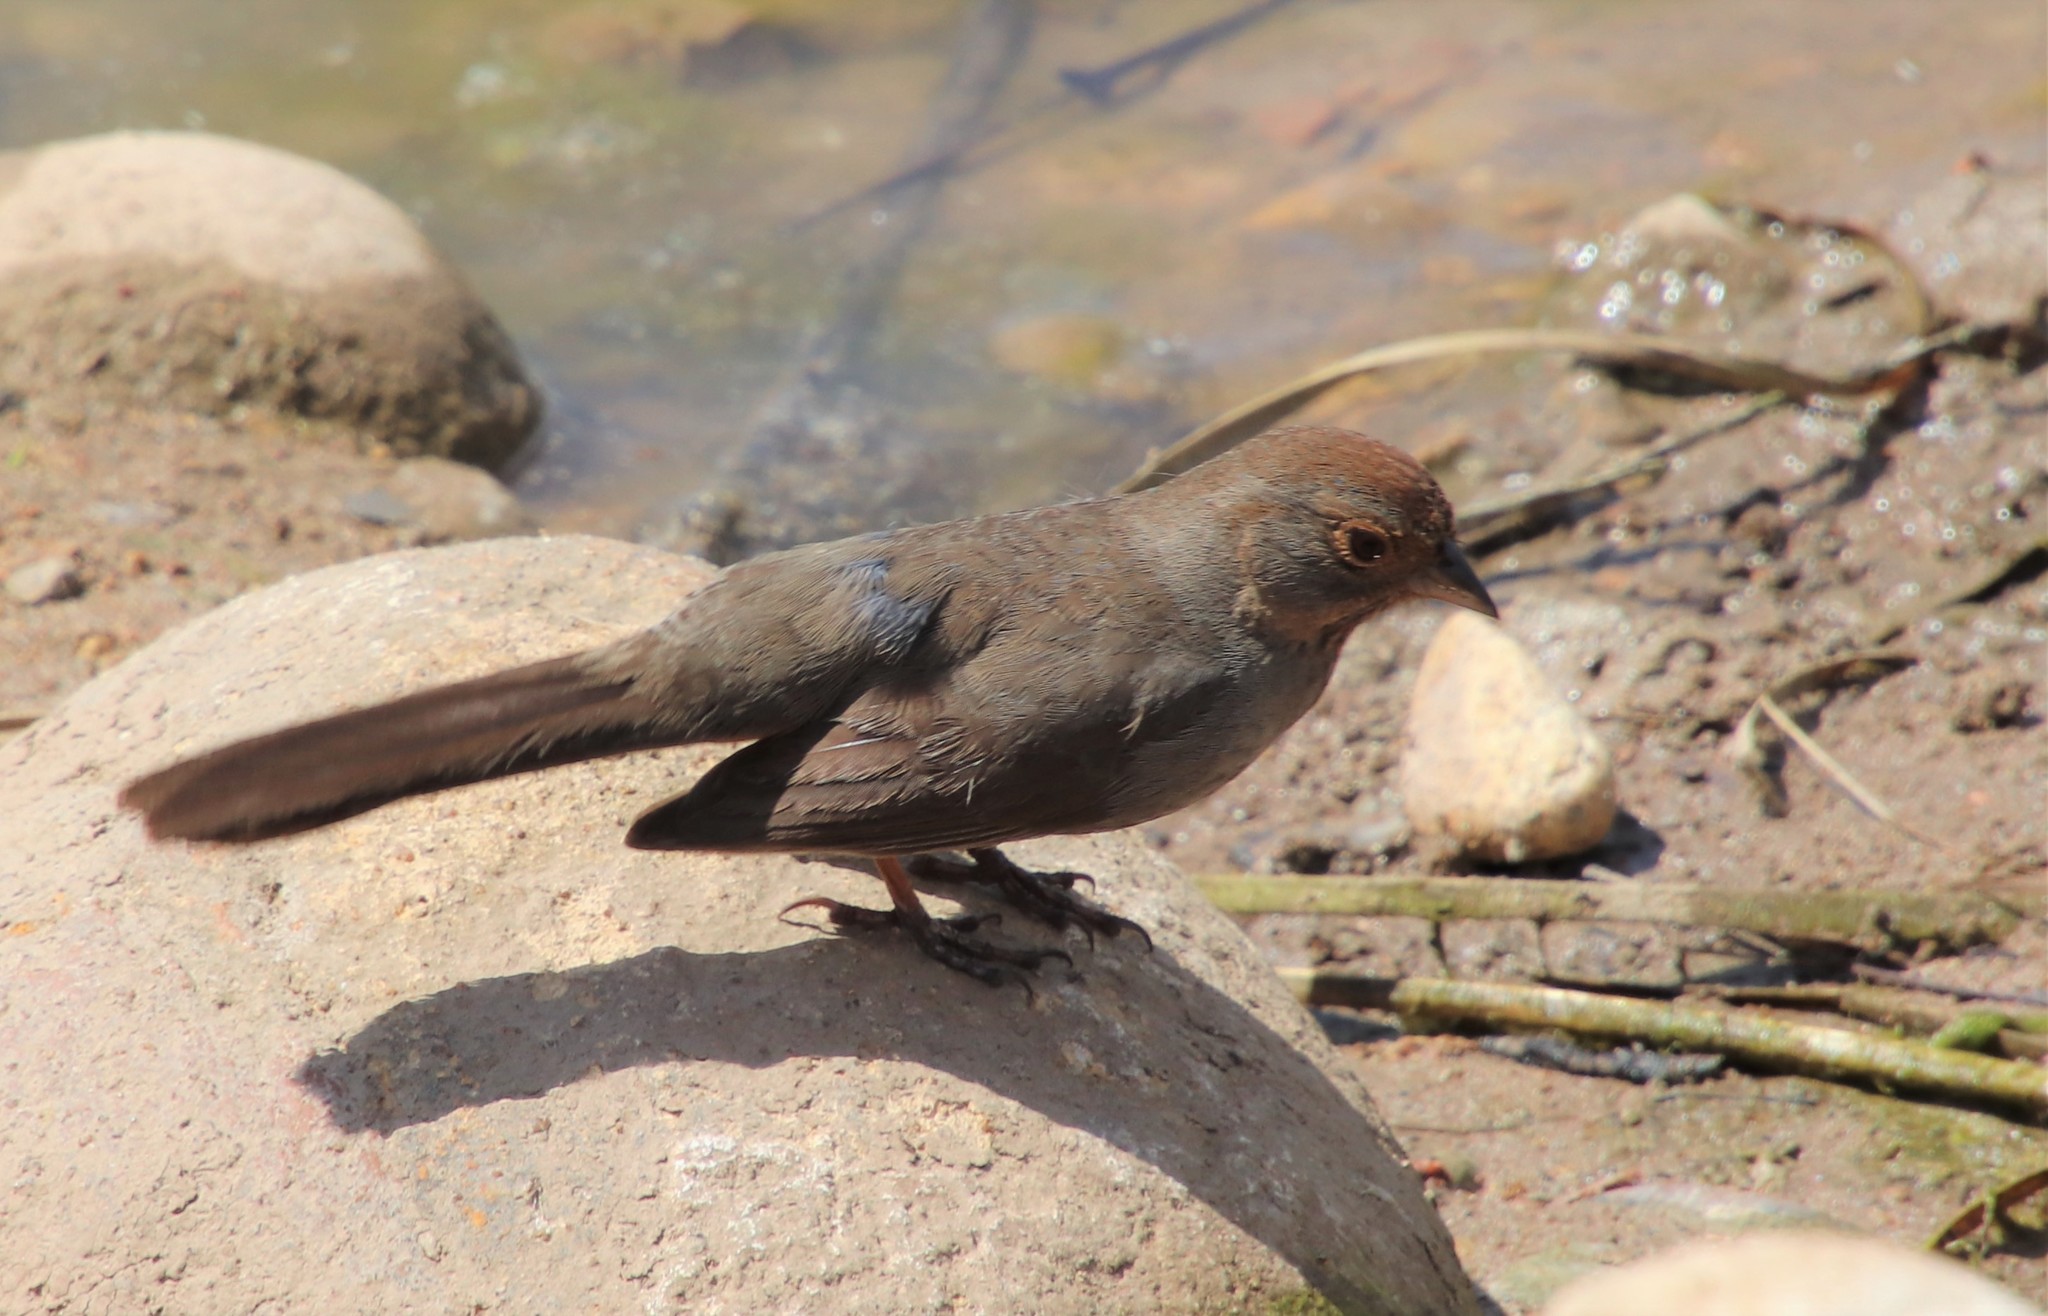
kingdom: Animalia
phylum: Chordata
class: Aves
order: Passeriformes
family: Passerellidae
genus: Melozone
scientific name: Melozone crissalis
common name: California towhee
